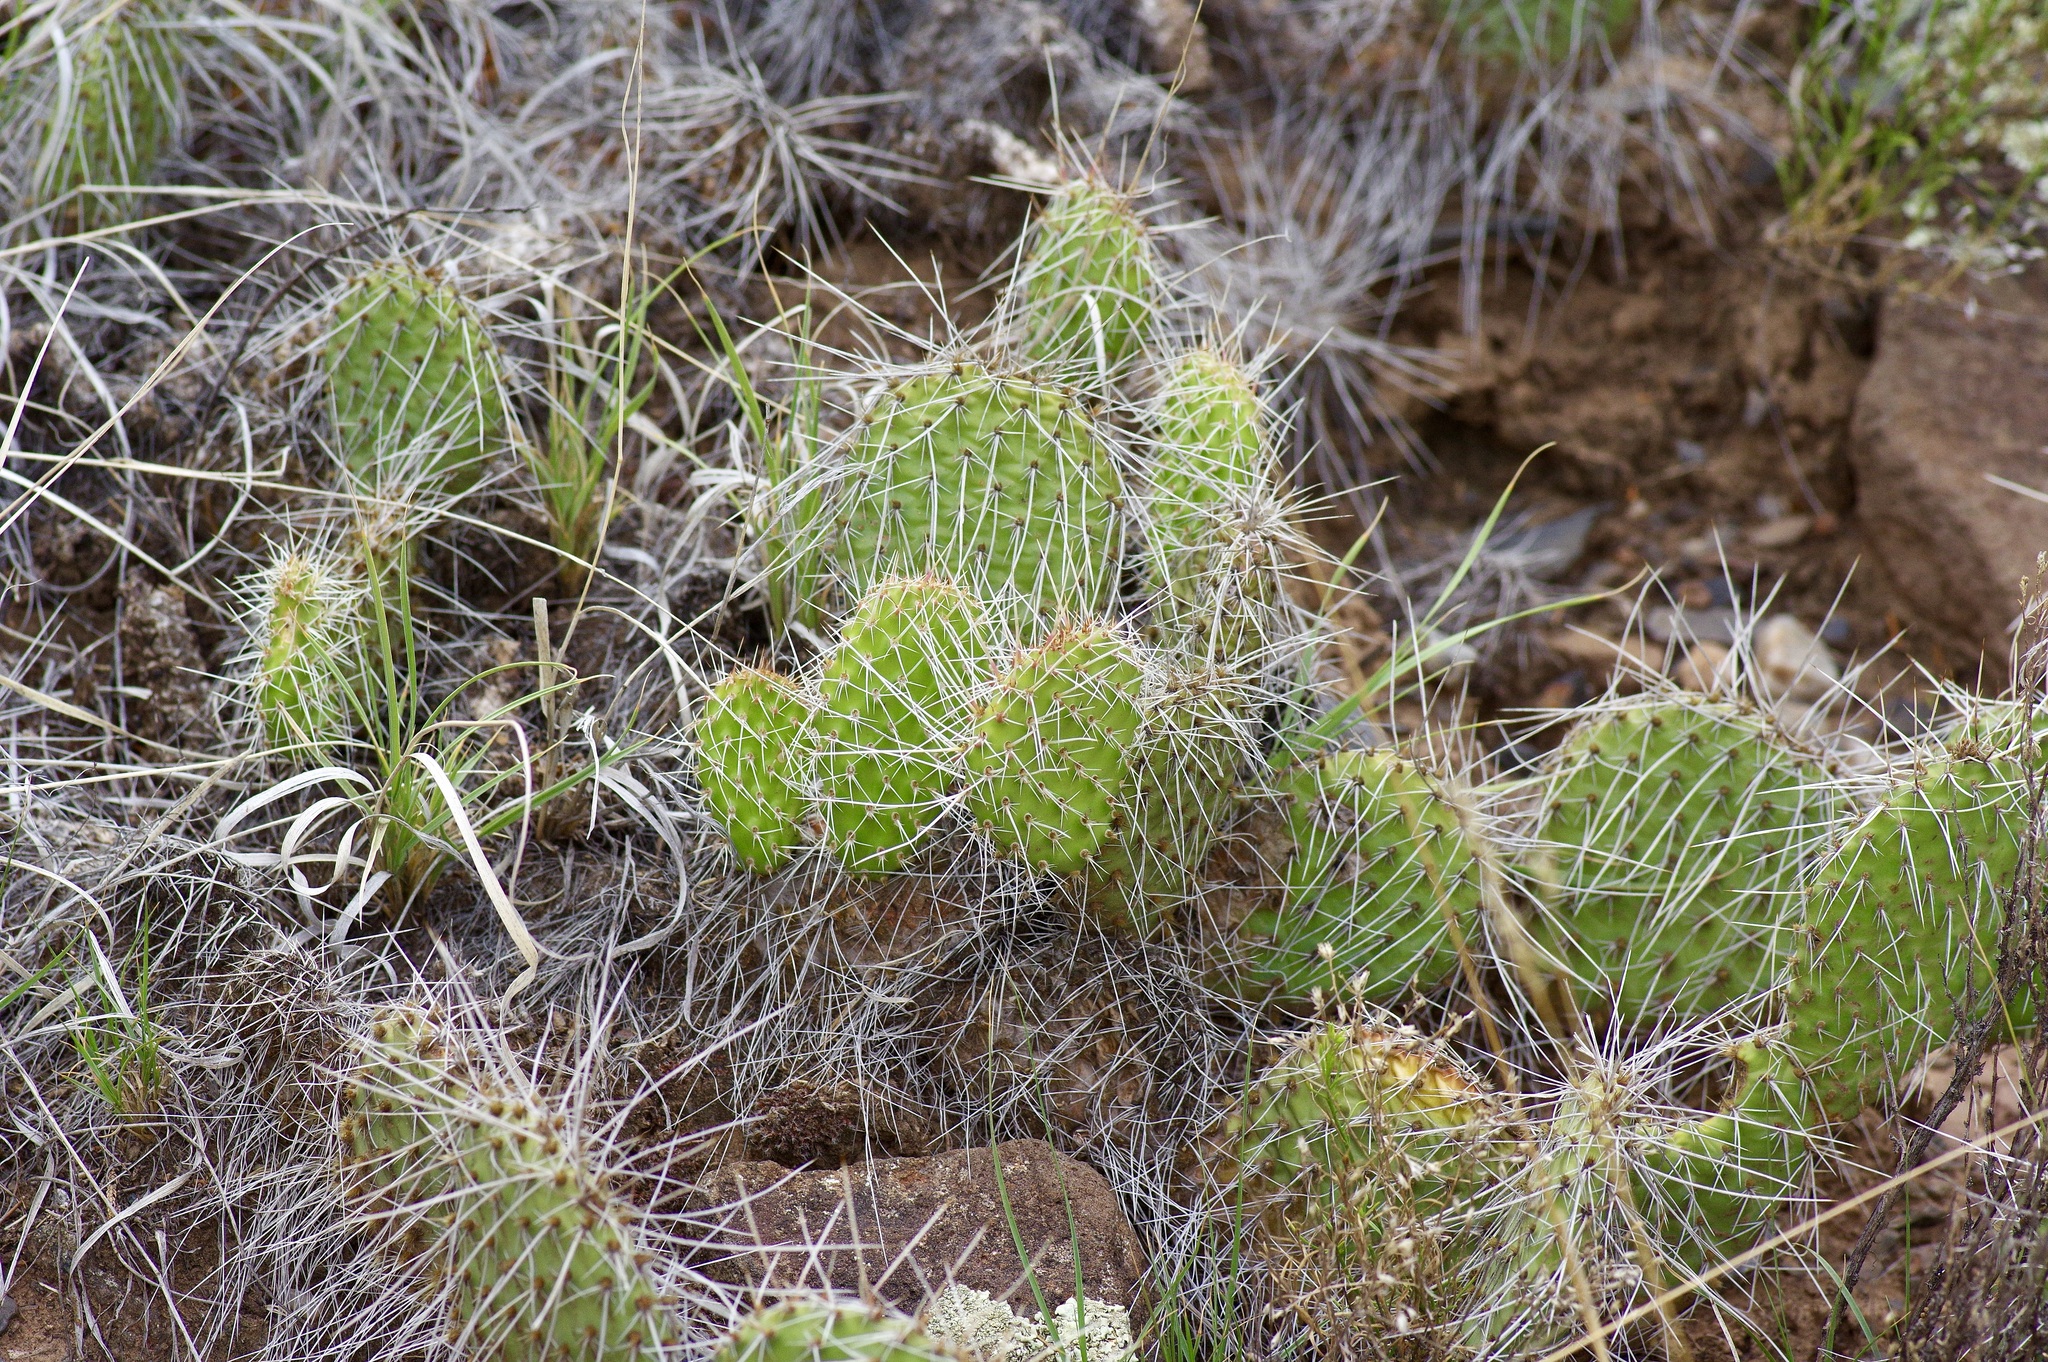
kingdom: Plantae
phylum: Tracheophyta
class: Magnoliopsida
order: Caryophyllales
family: Cactaceae
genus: Opuntia
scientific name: Opuntia polyacantha
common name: Plains prickly-pear
